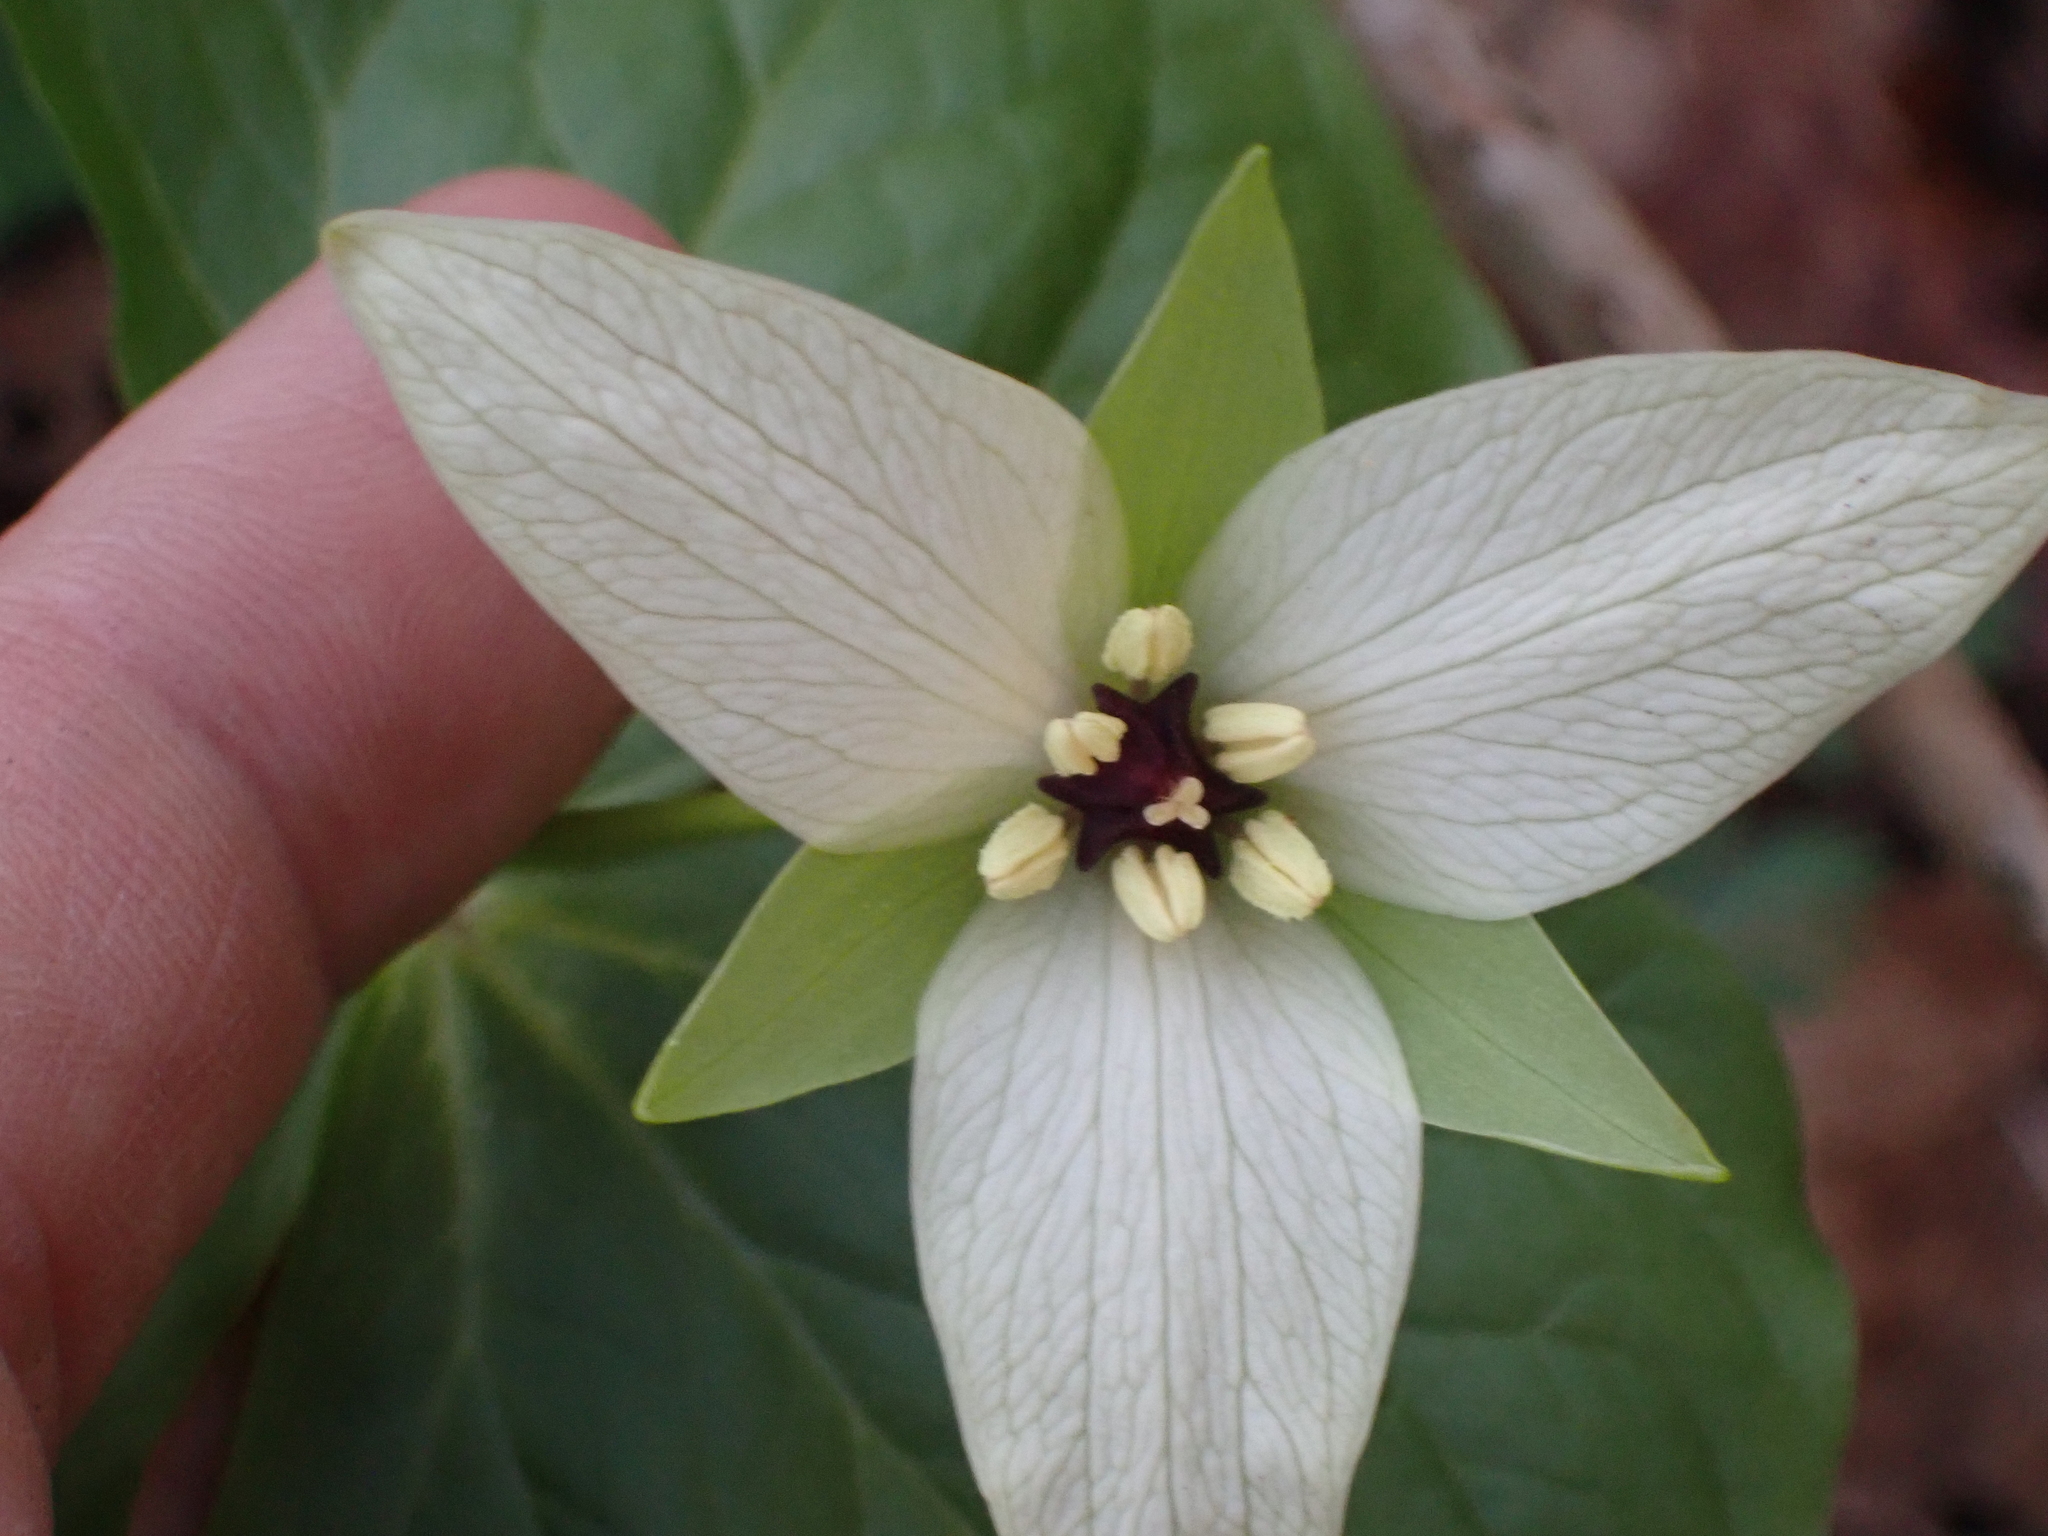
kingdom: Plantae
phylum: Tracheophyta
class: Liliopsida
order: Liliales
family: Melanthiaceae
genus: Trillium
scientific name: Trillium erectum
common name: Purple trillium
